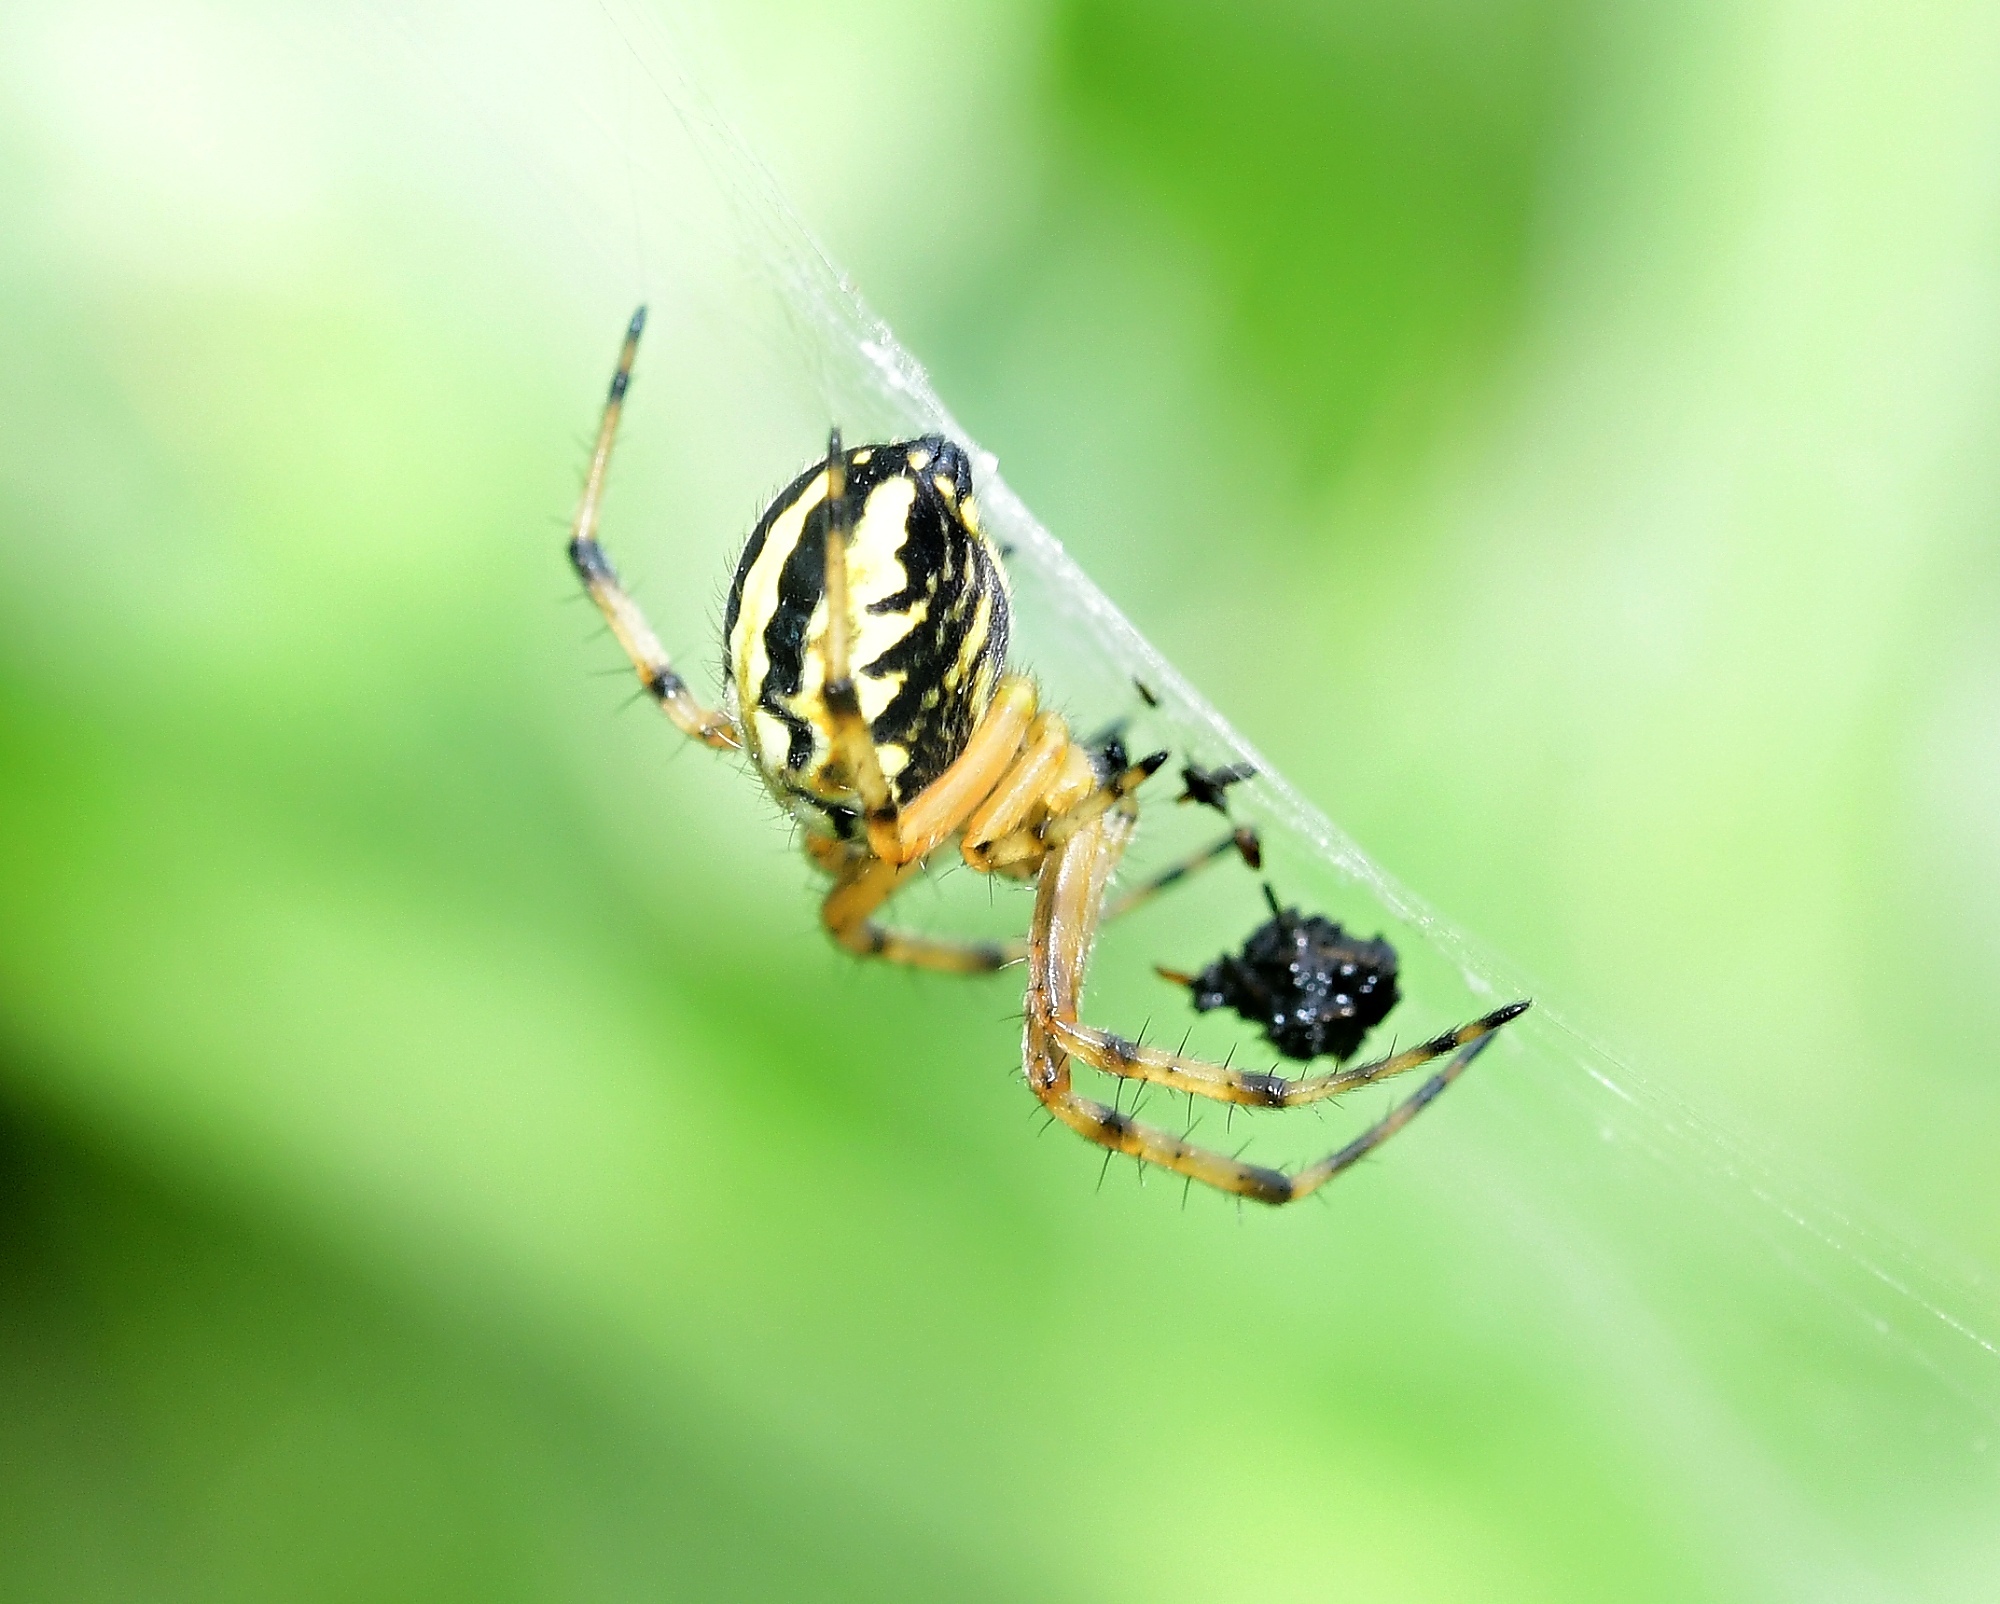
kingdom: Animalia
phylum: Arthropoda
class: Arachnida
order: Araneae
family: Araneidae
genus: Neoscona
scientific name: Neoscona adianta
